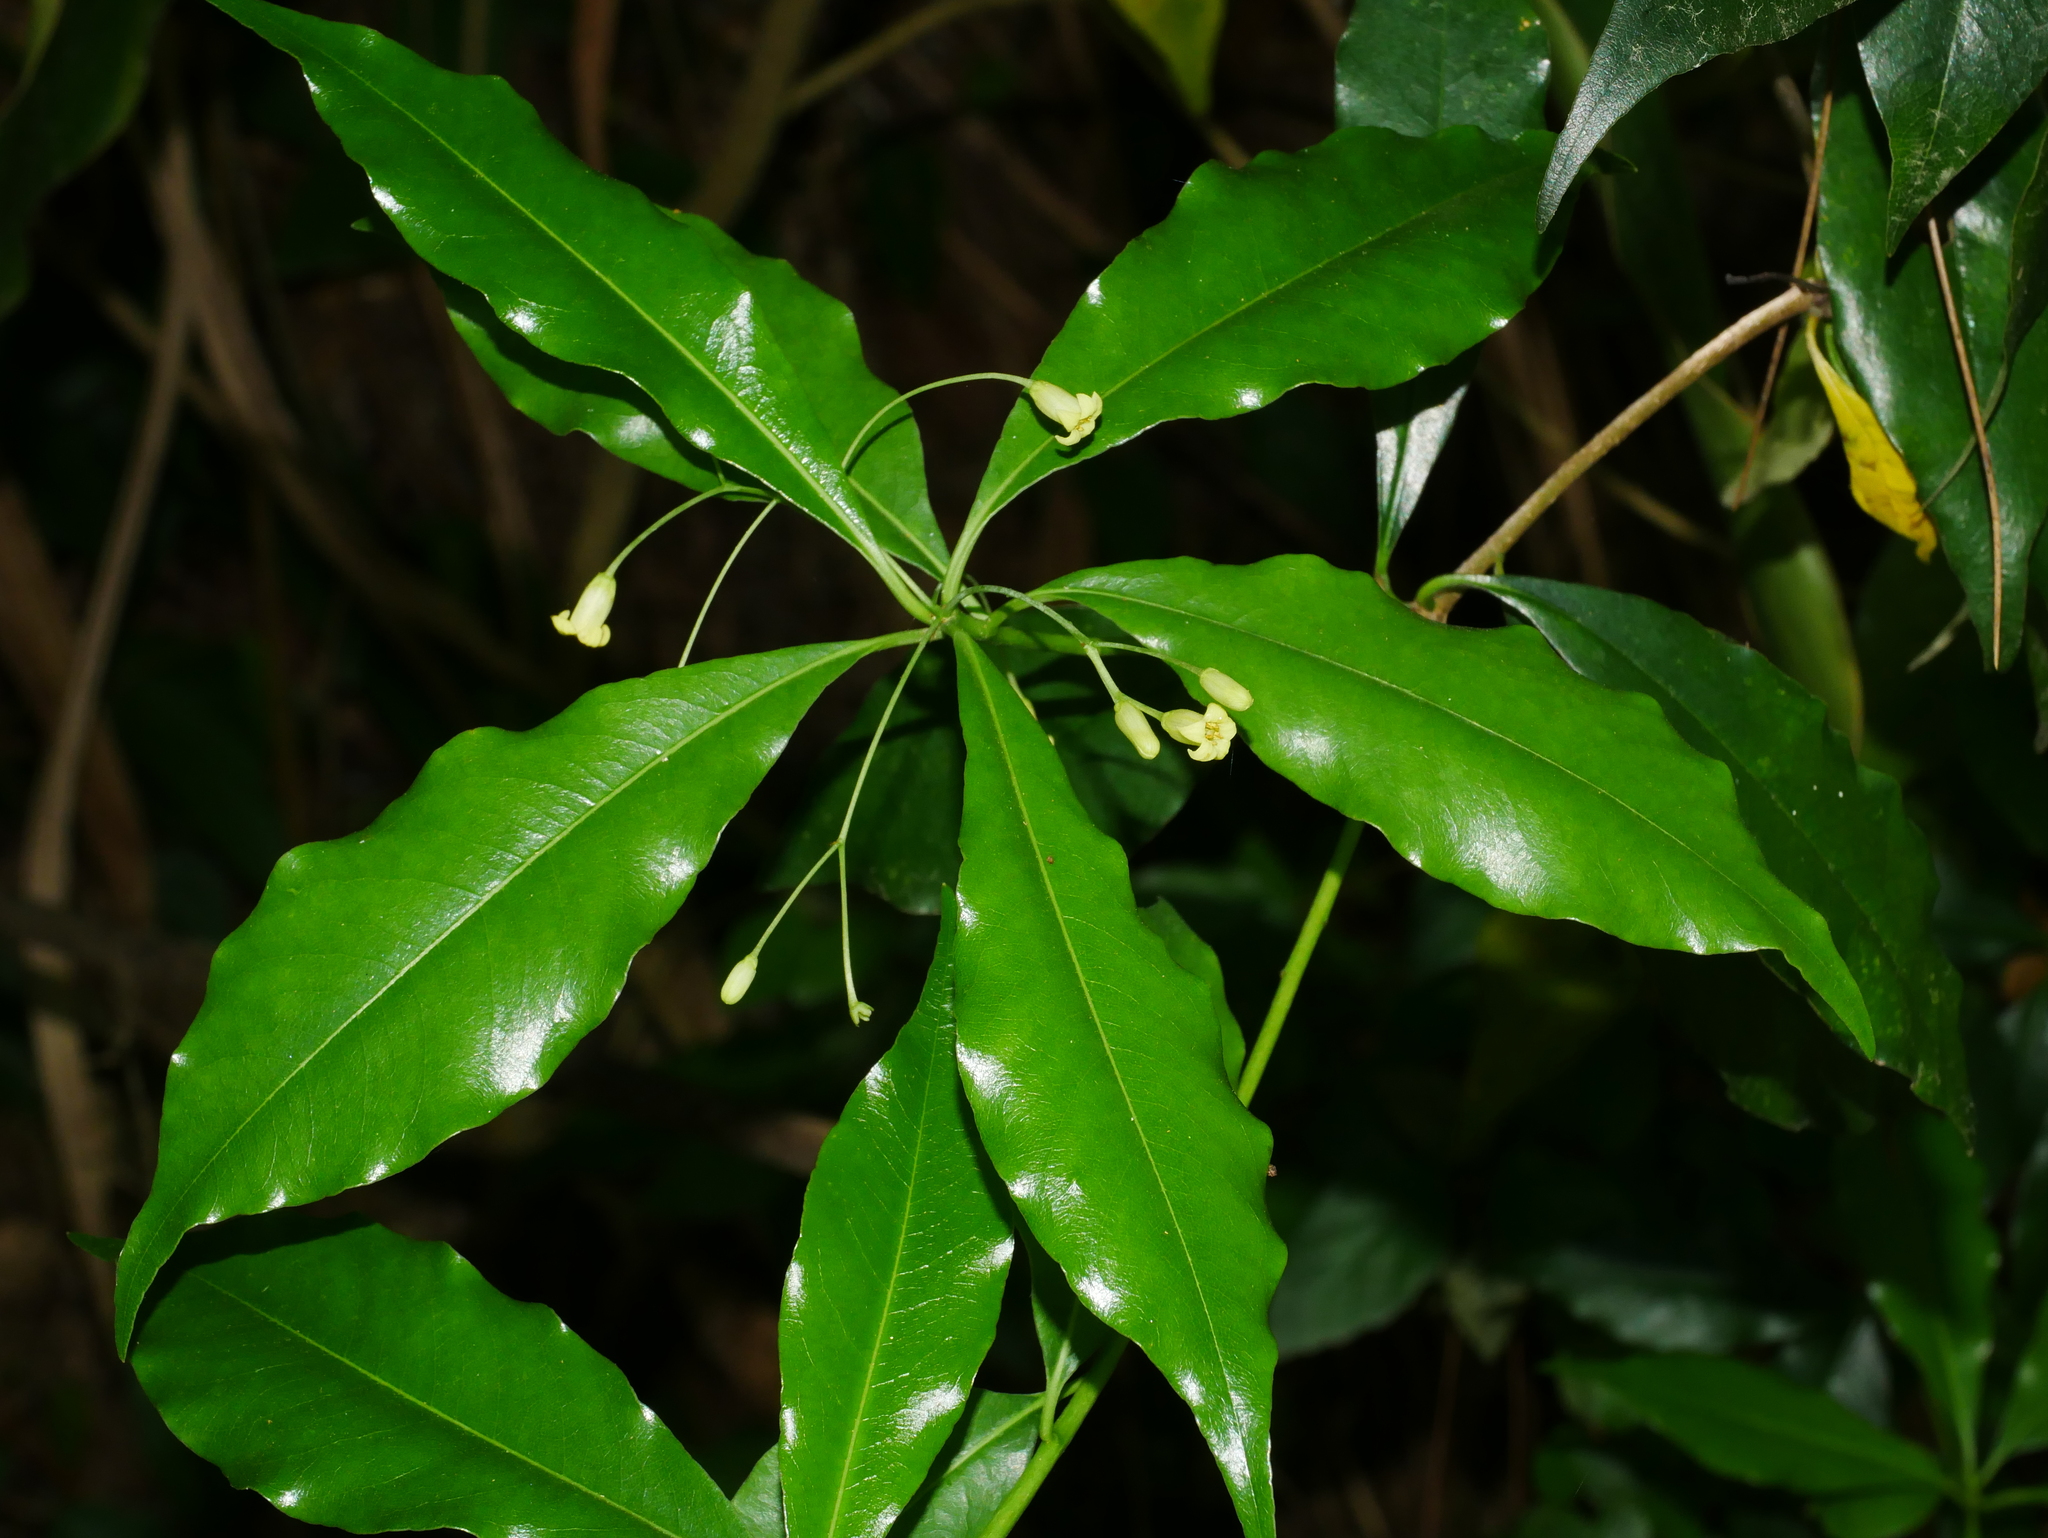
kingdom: Plantae
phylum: Tracheophyta
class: Magnoliopsida
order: Apiales
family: Pittosporaceae
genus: Pittosporum
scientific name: Pittosporum illicioides
